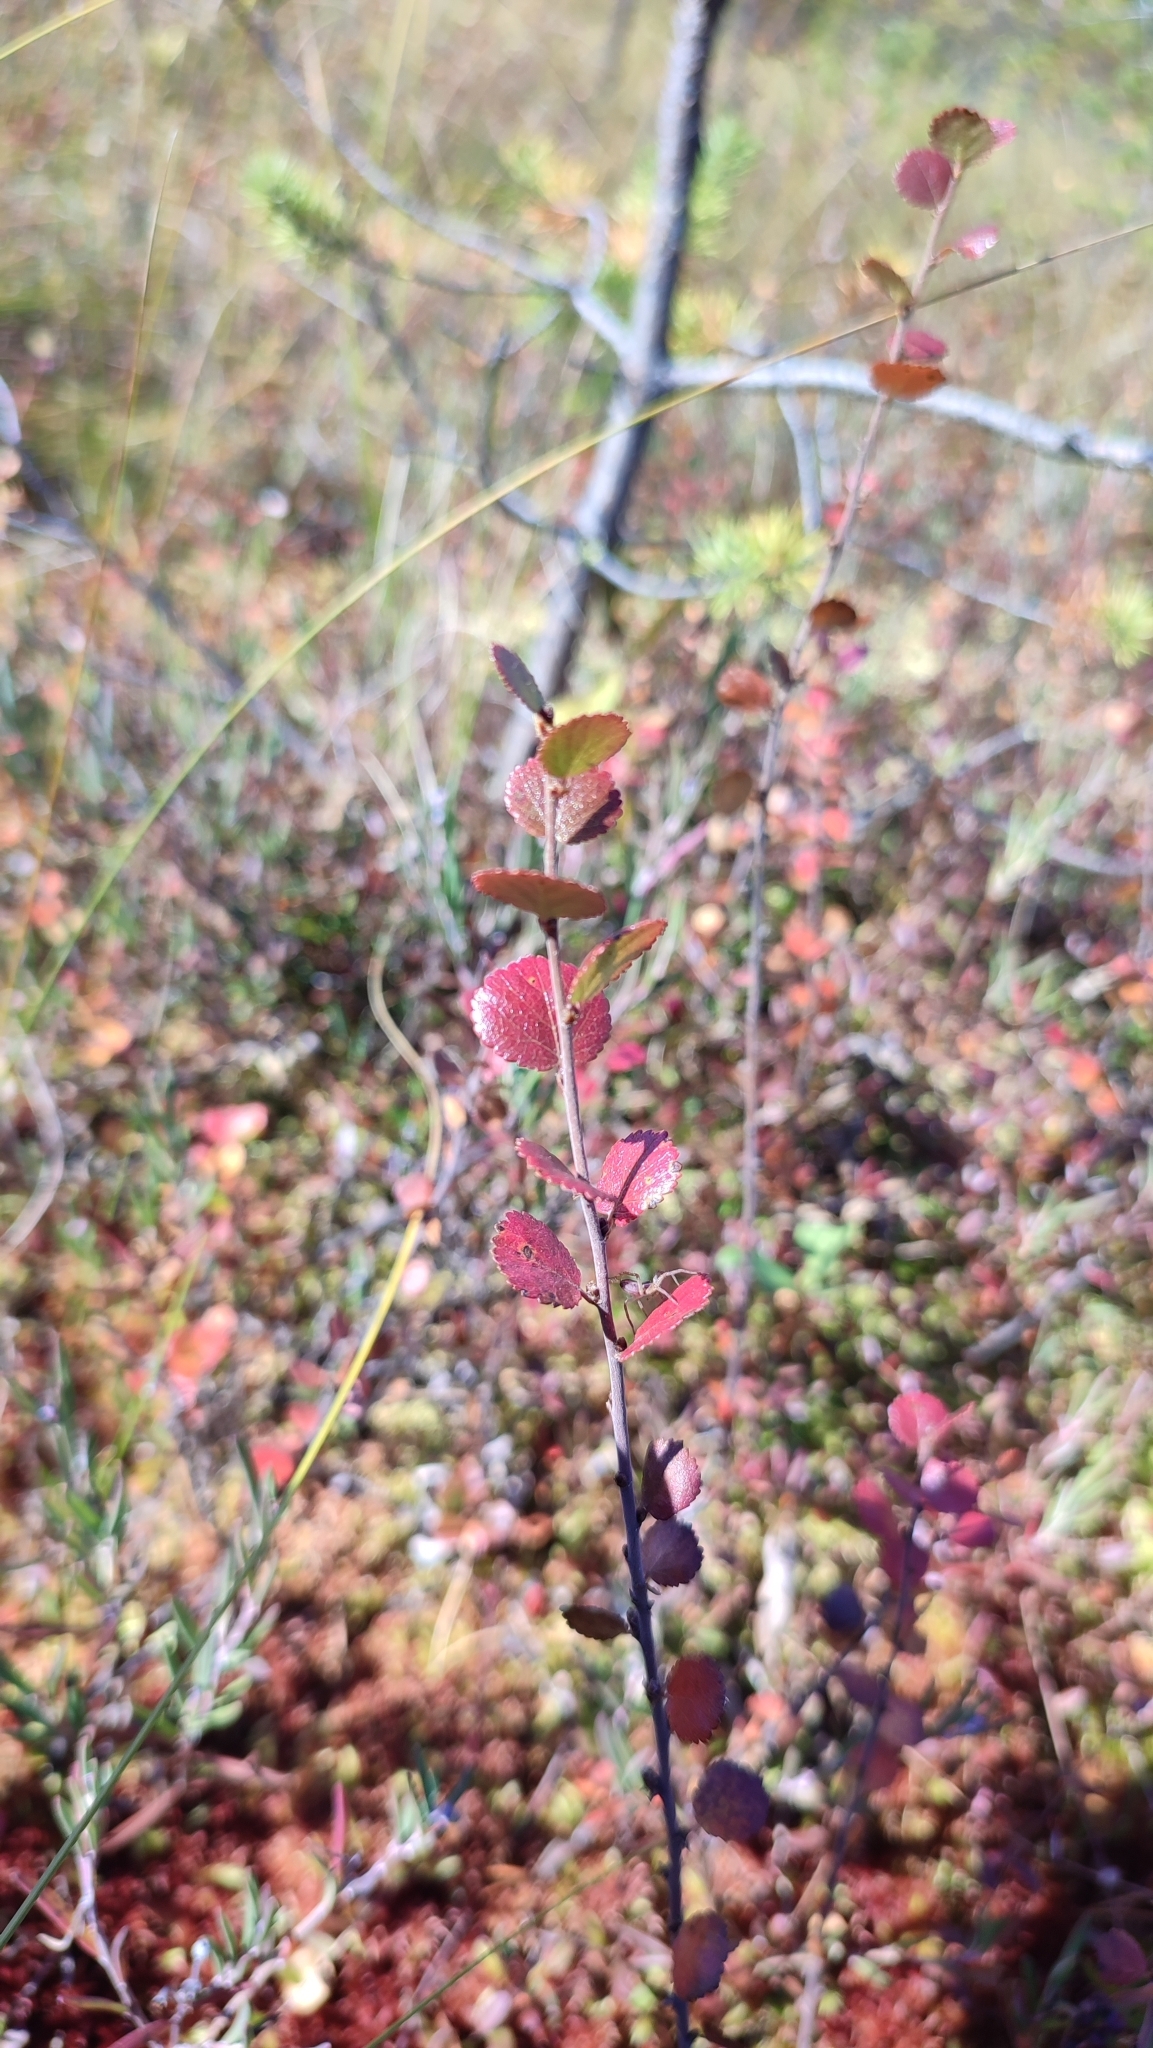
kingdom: Plantae
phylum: Tracheophyta
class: Magnoliopsida
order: Fagales
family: Betulaceae
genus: Betula
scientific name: Betula nana
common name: Arctic dwarf birch
